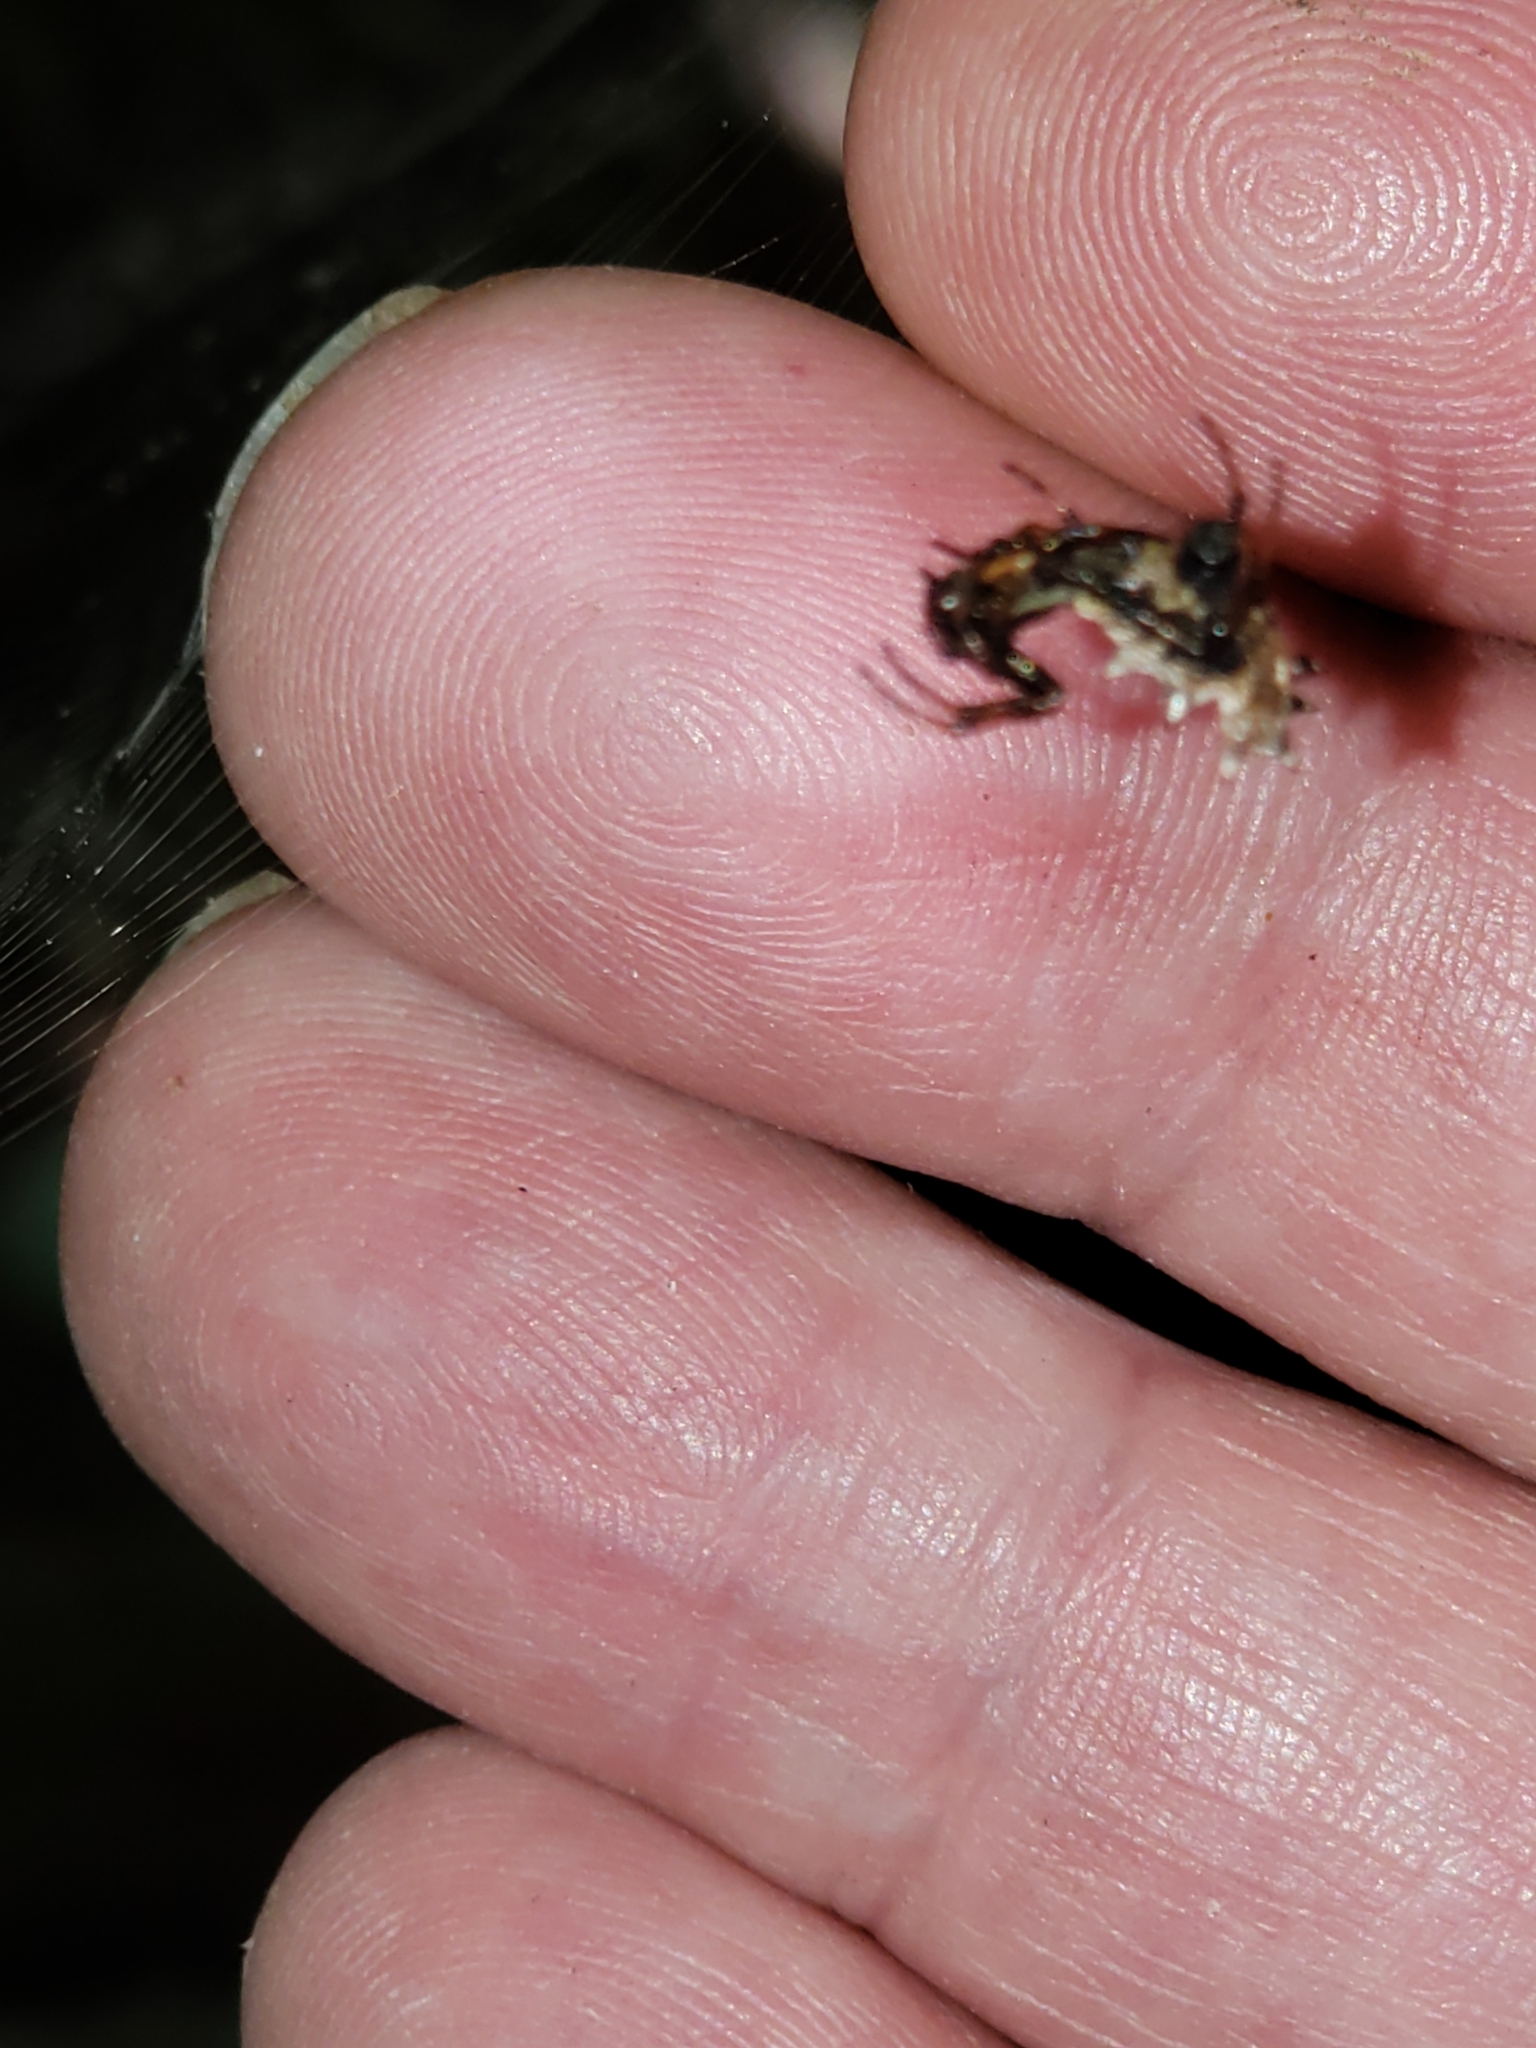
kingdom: Animalia
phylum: Arthropoda
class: Arachnida
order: Araneae
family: Araneidae
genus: Micrathena
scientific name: Micrathena gracilis
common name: Orb weavers
